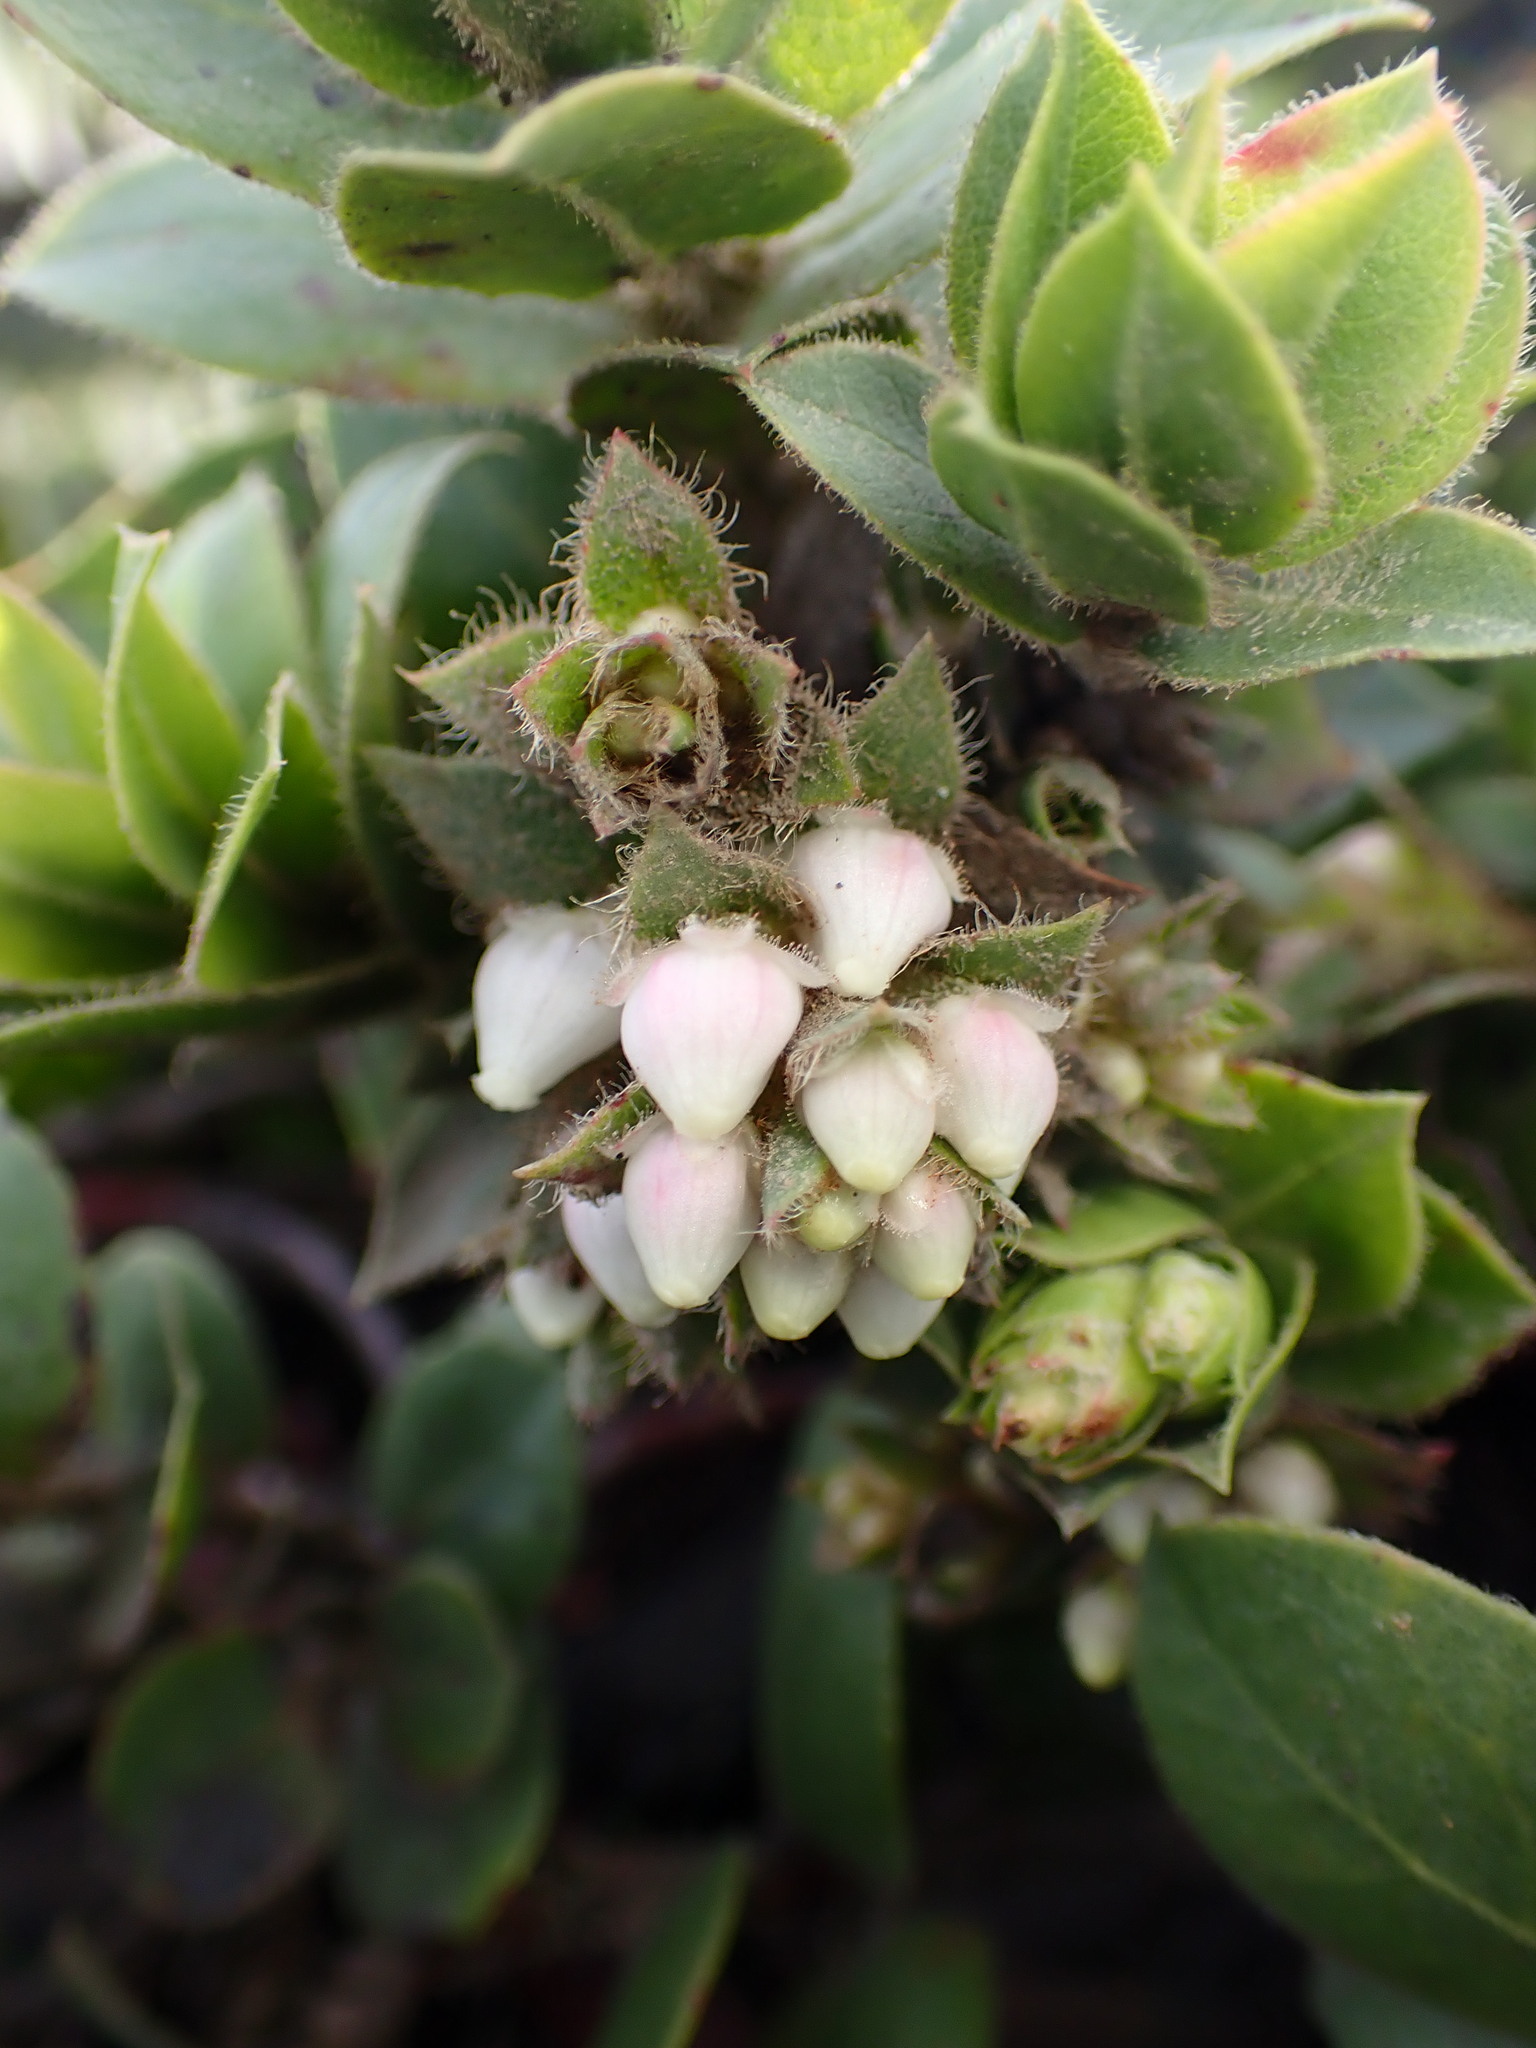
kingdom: Plantae
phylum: Tracheophyta
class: Magnoliopsida
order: Ericales
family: Ericaceae
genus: Arctostaphylos
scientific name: Arctostaphylos imbricata
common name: San bruno mountain manzanita
